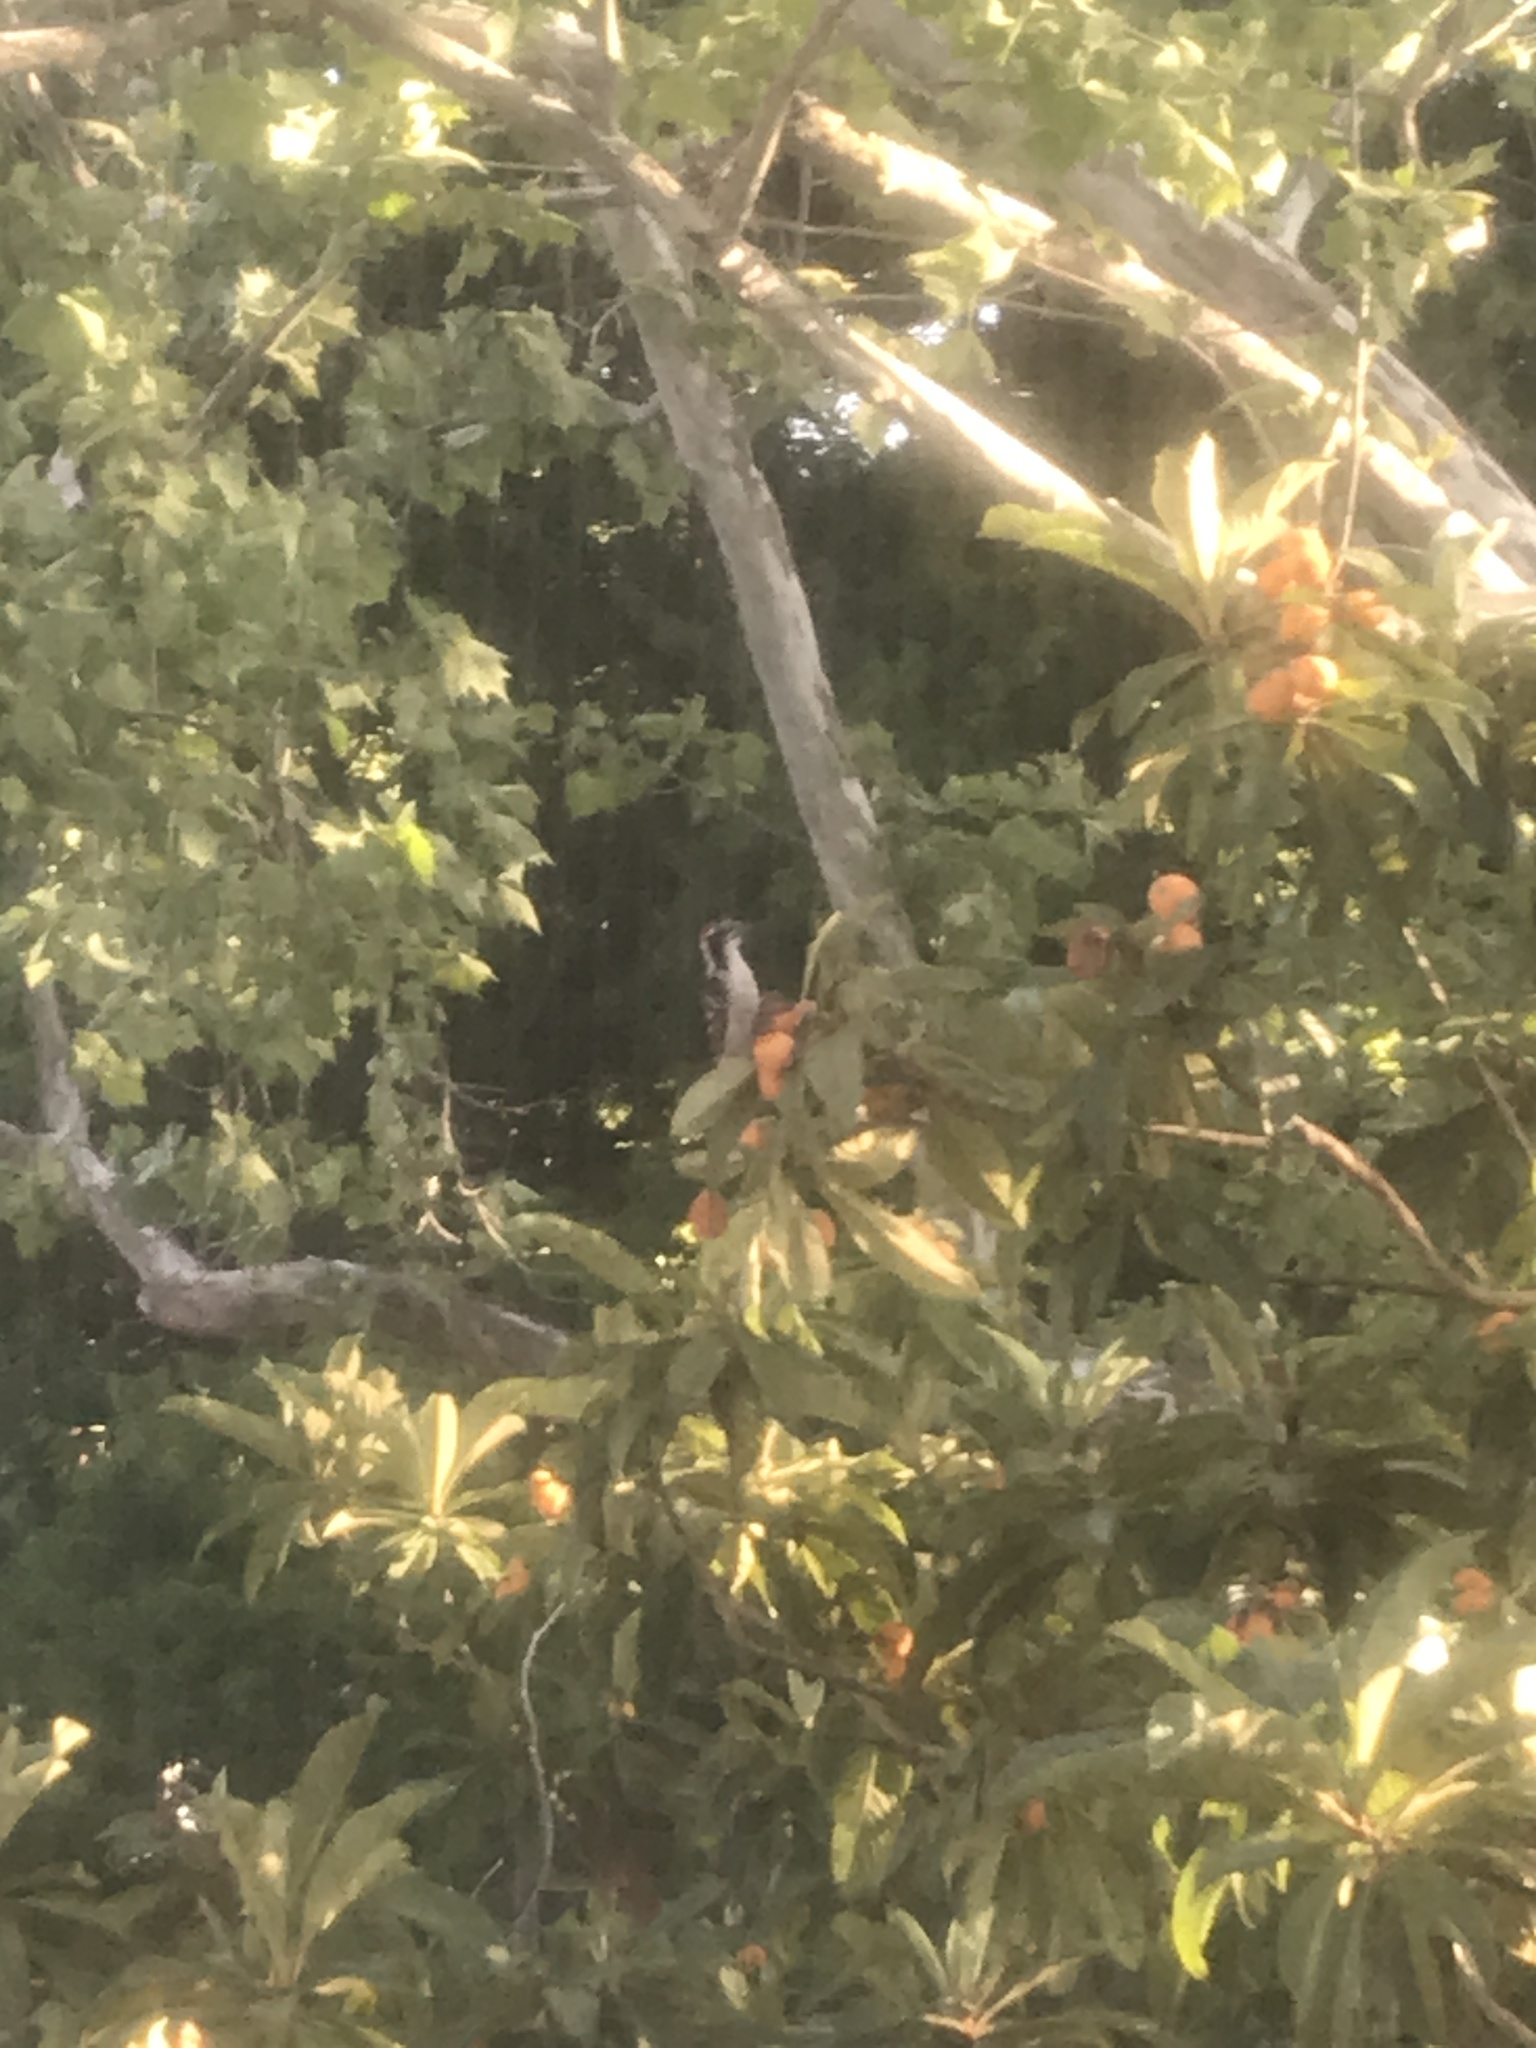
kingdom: Animalia
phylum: Chordata
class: Aves
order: Piciformes
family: Picidae
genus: Dryobates
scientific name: Dryobates nuttallii
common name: Nuttall's woodpecker
